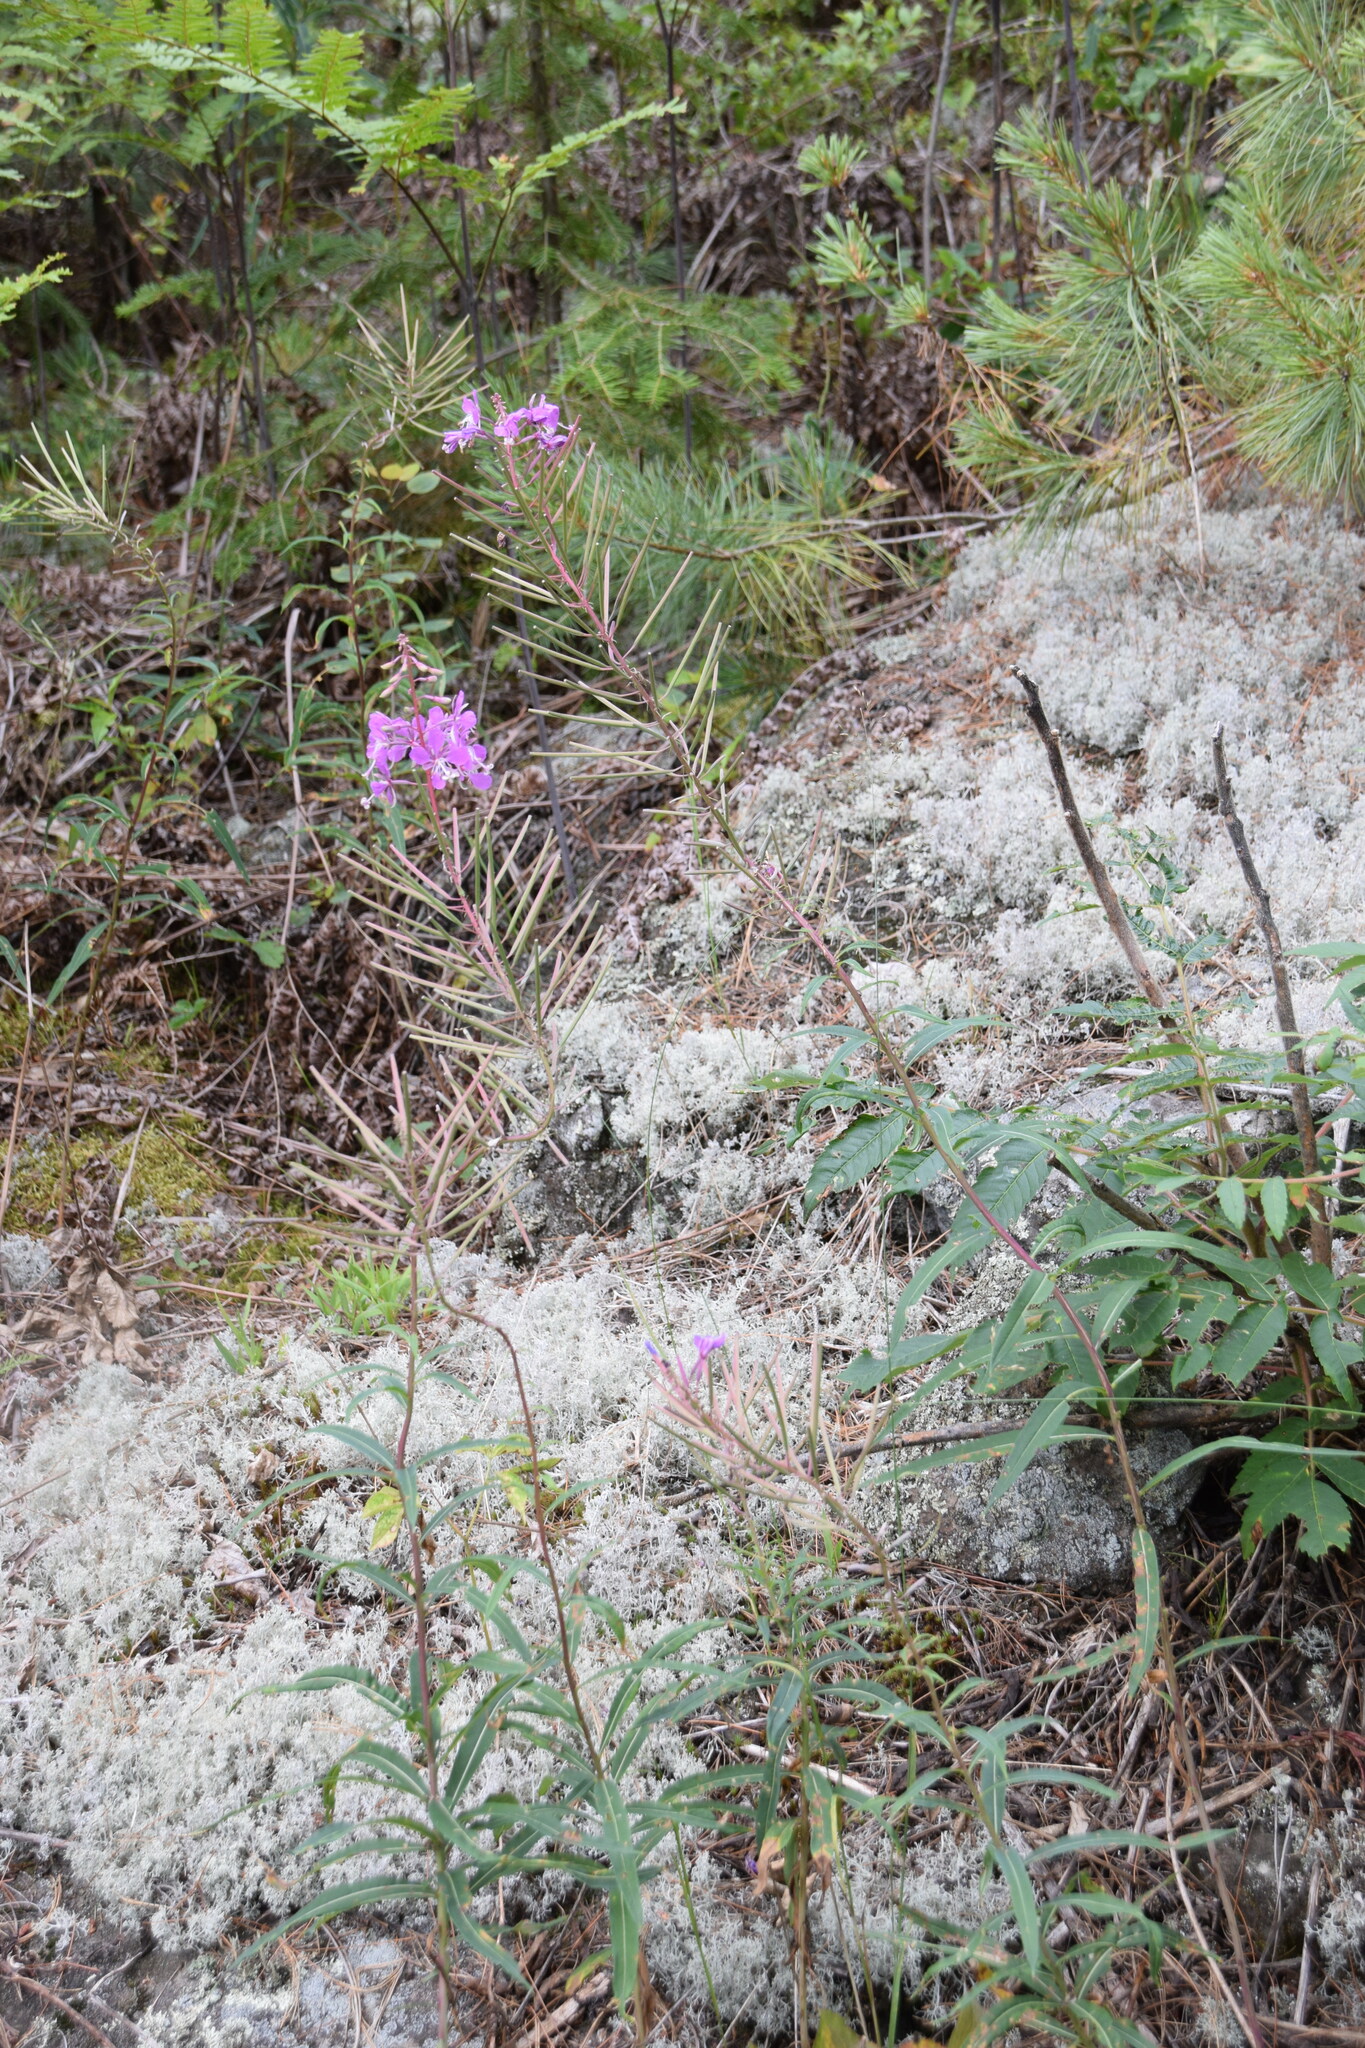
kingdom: Plantae
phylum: Tracheophyta
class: Magnoliopsida
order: Myrtales
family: Onagraceae
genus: Chamaenerion
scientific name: Chamaenerion angustifolium
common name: Fireweed
